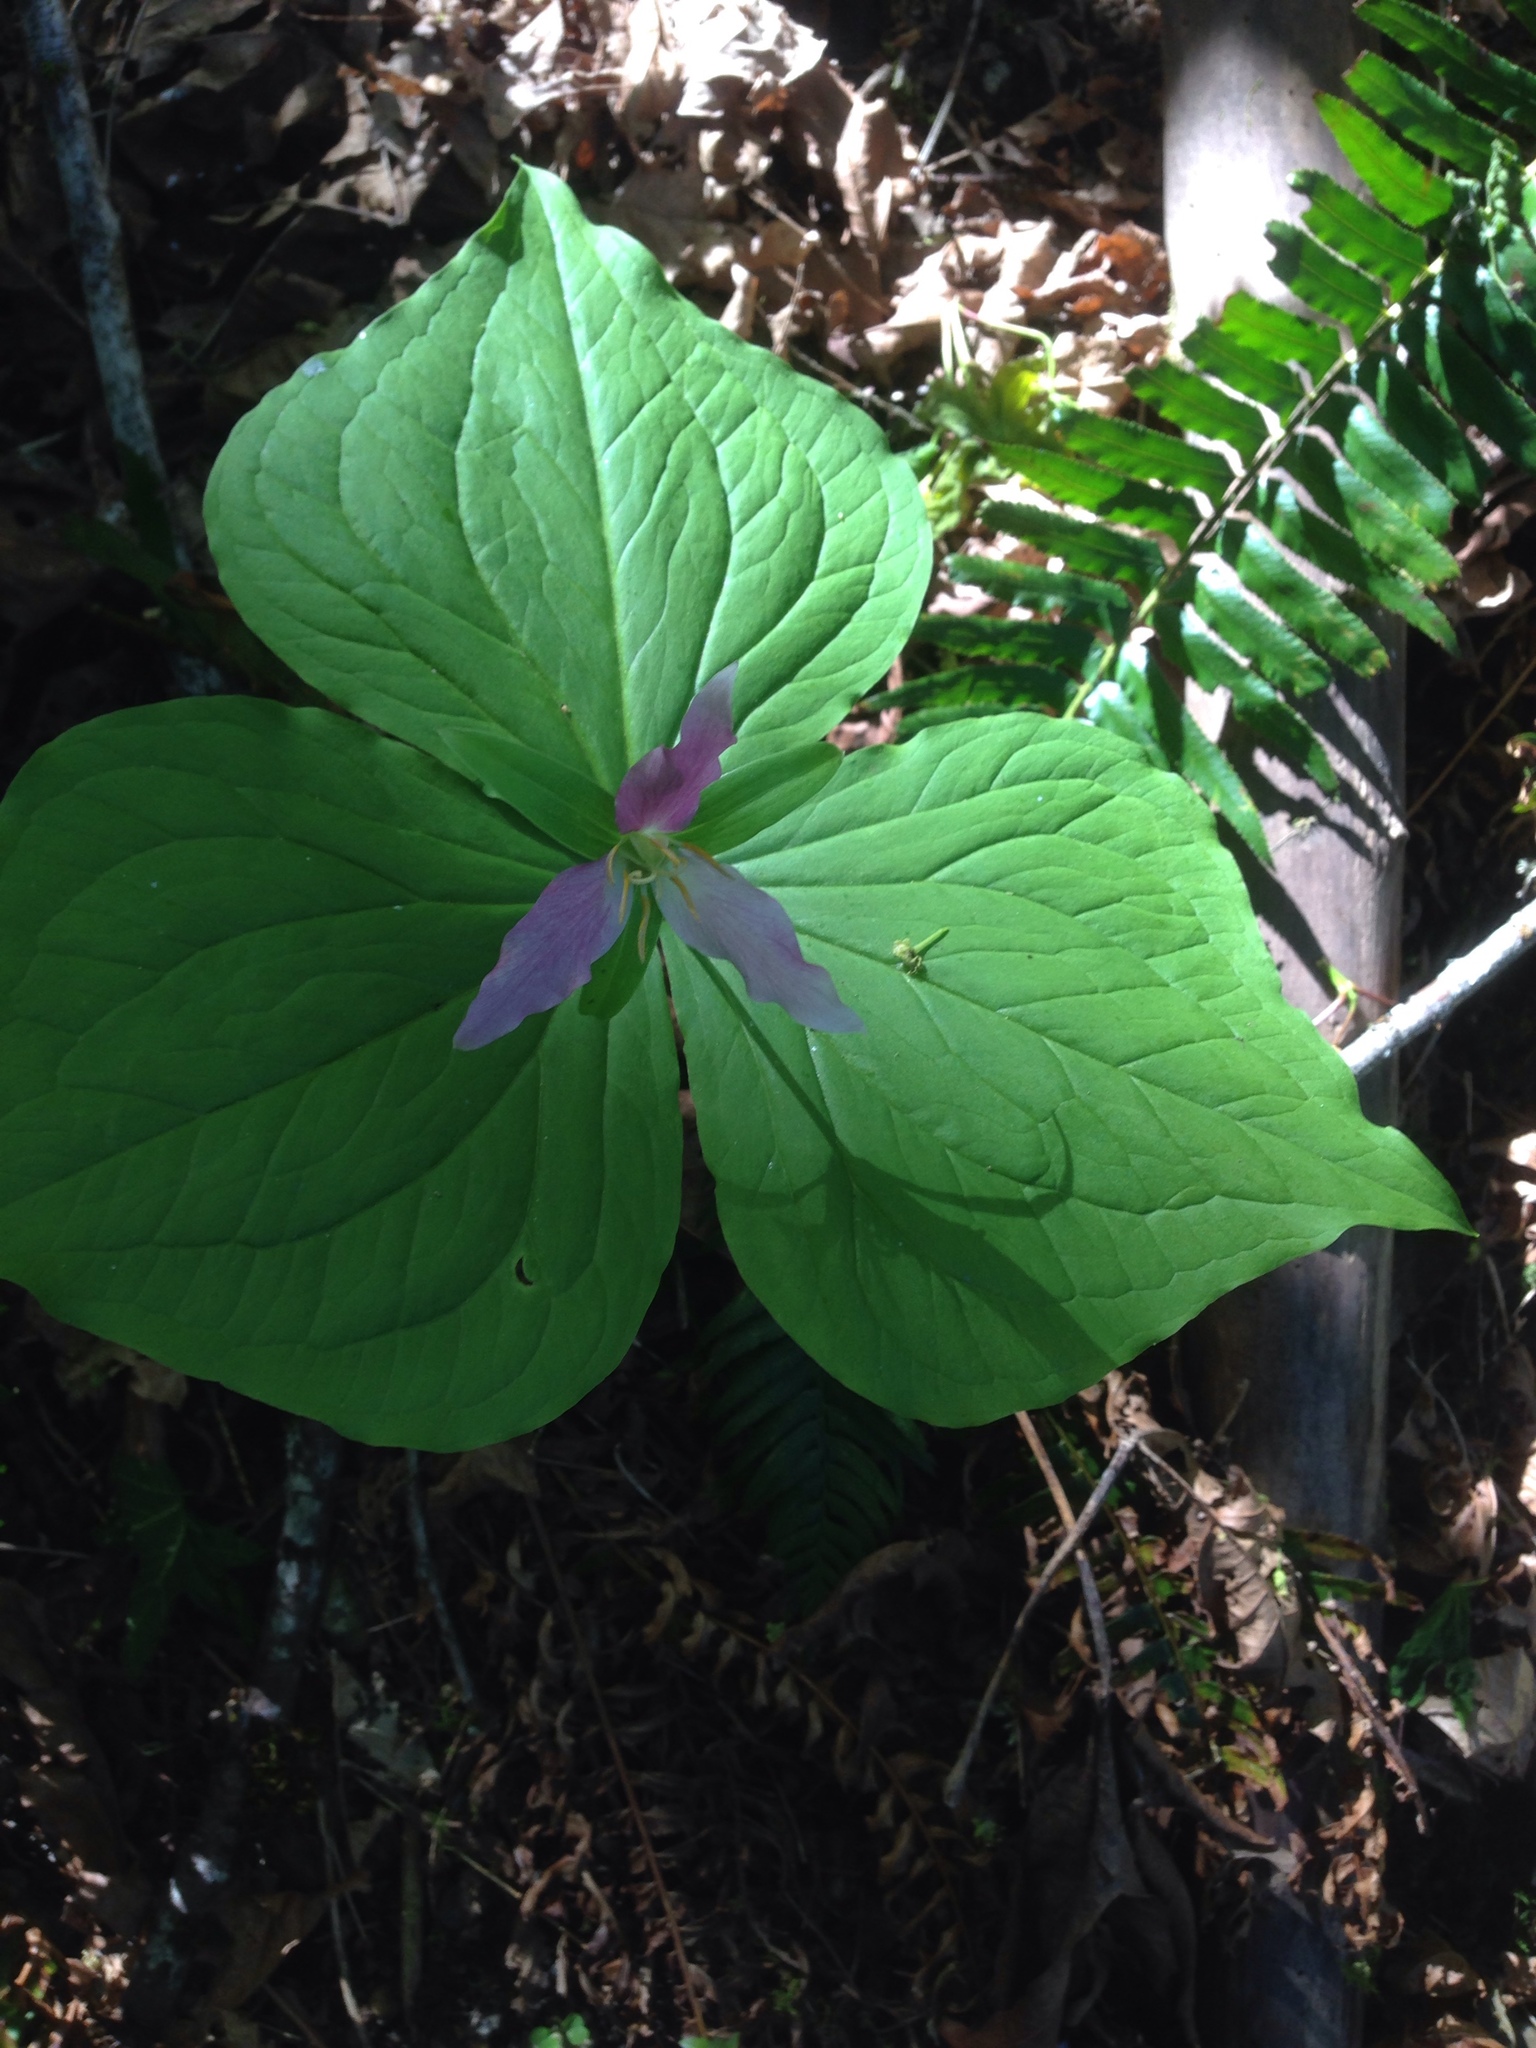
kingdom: Plantae
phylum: Tracheophyta
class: Liliopsida
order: Liliales
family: Melanthiaceae
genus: Trillium
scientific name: Trillium ovatum
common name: Pacific trillium
